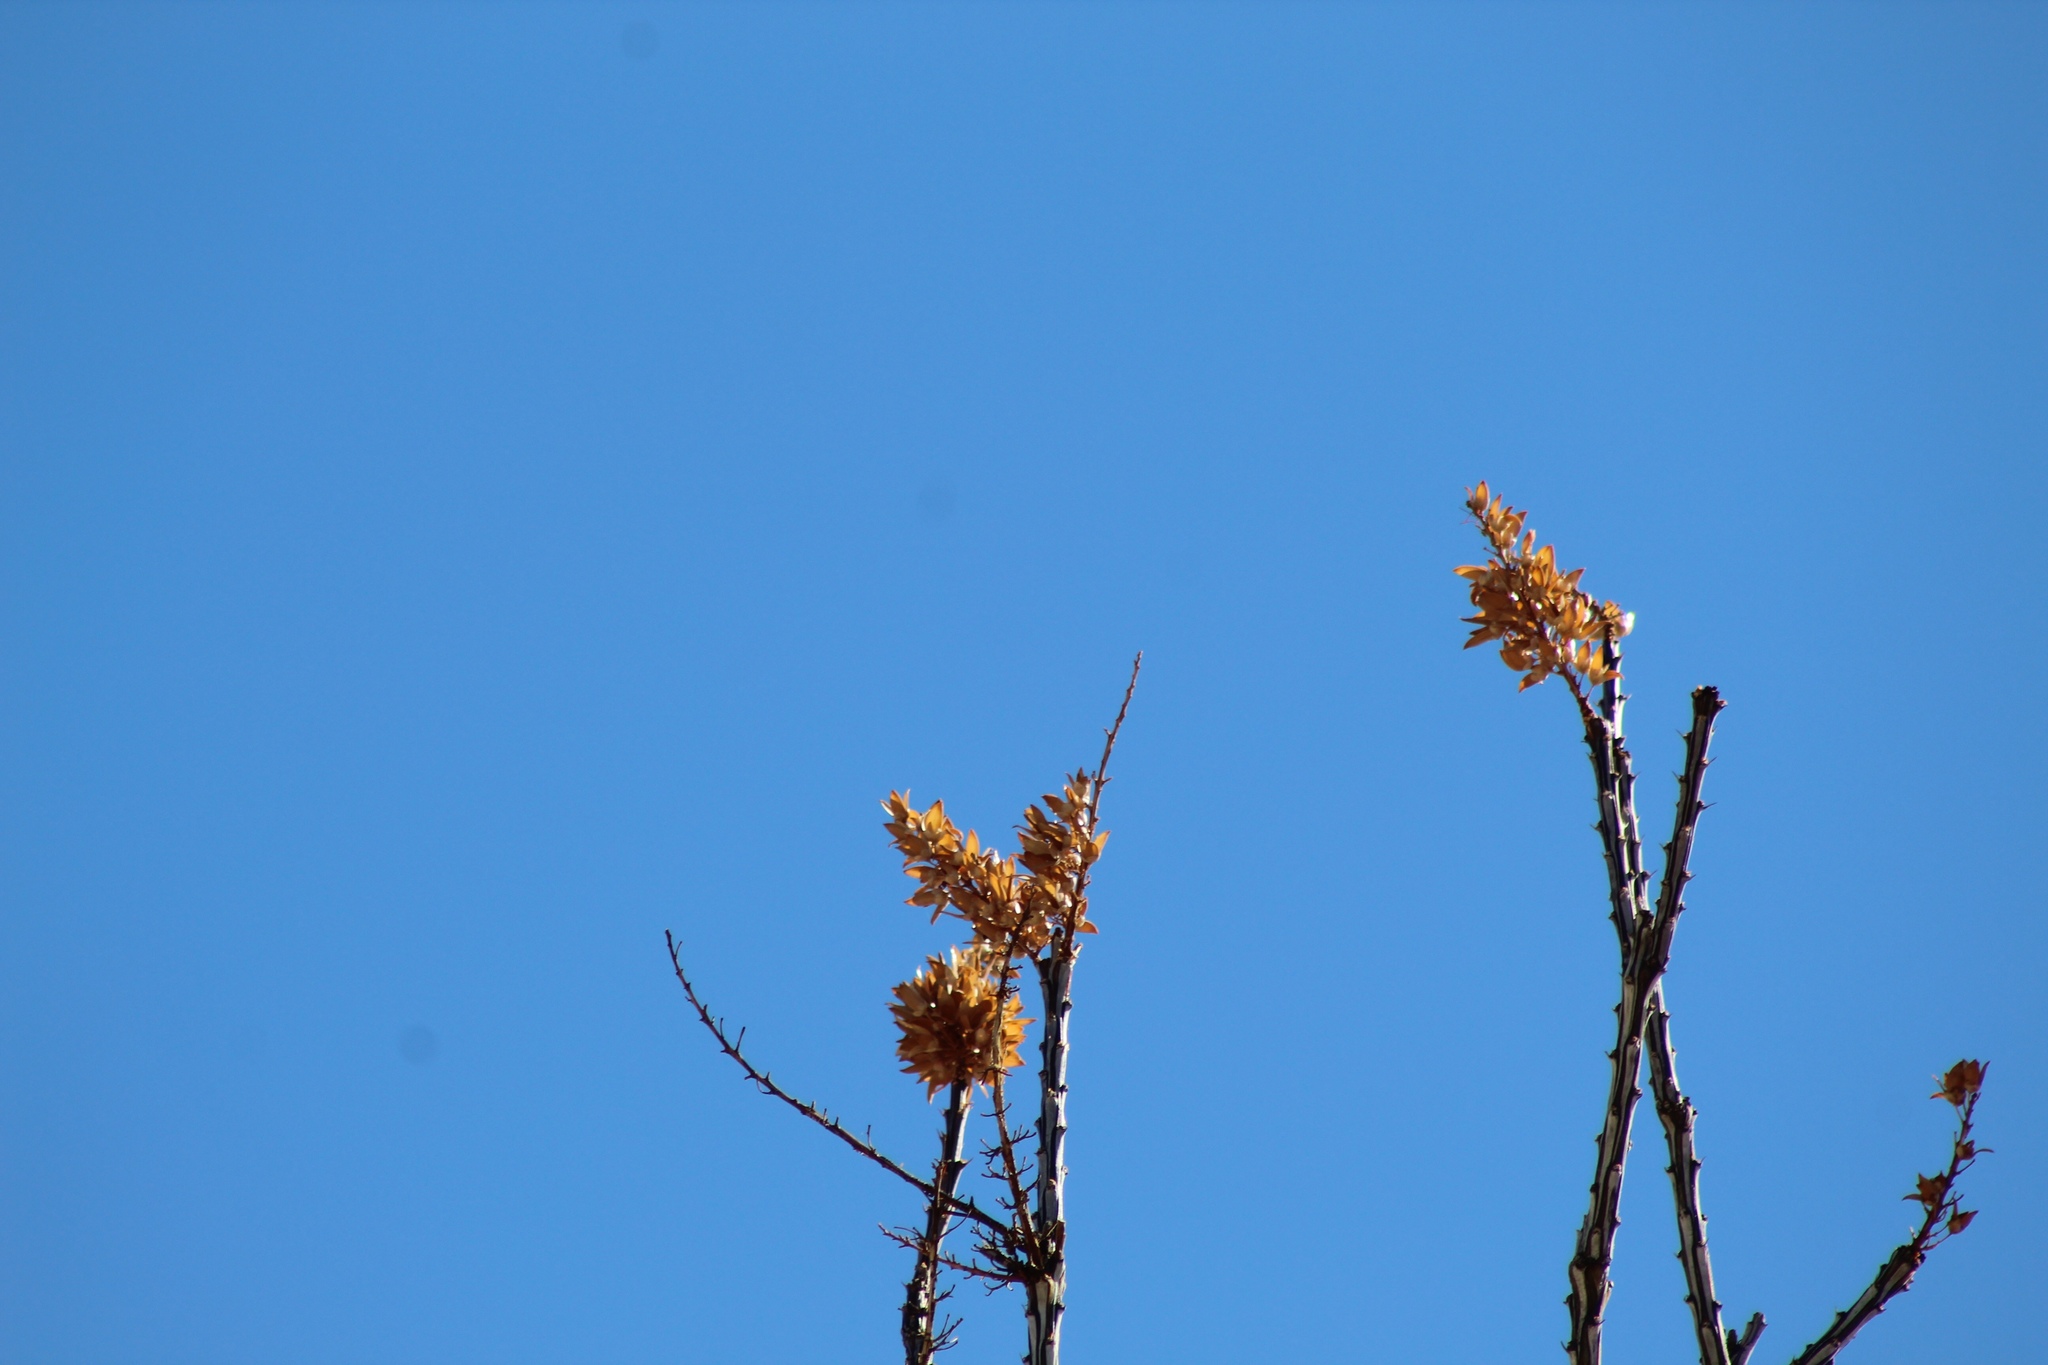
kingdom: Plantae
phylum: Tracheophyta
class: Magnoliopsida
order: Ericales
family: Fouquieriaceae
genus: Fouquieria
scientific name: Fouquieria splendens
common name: Vine-cactus
